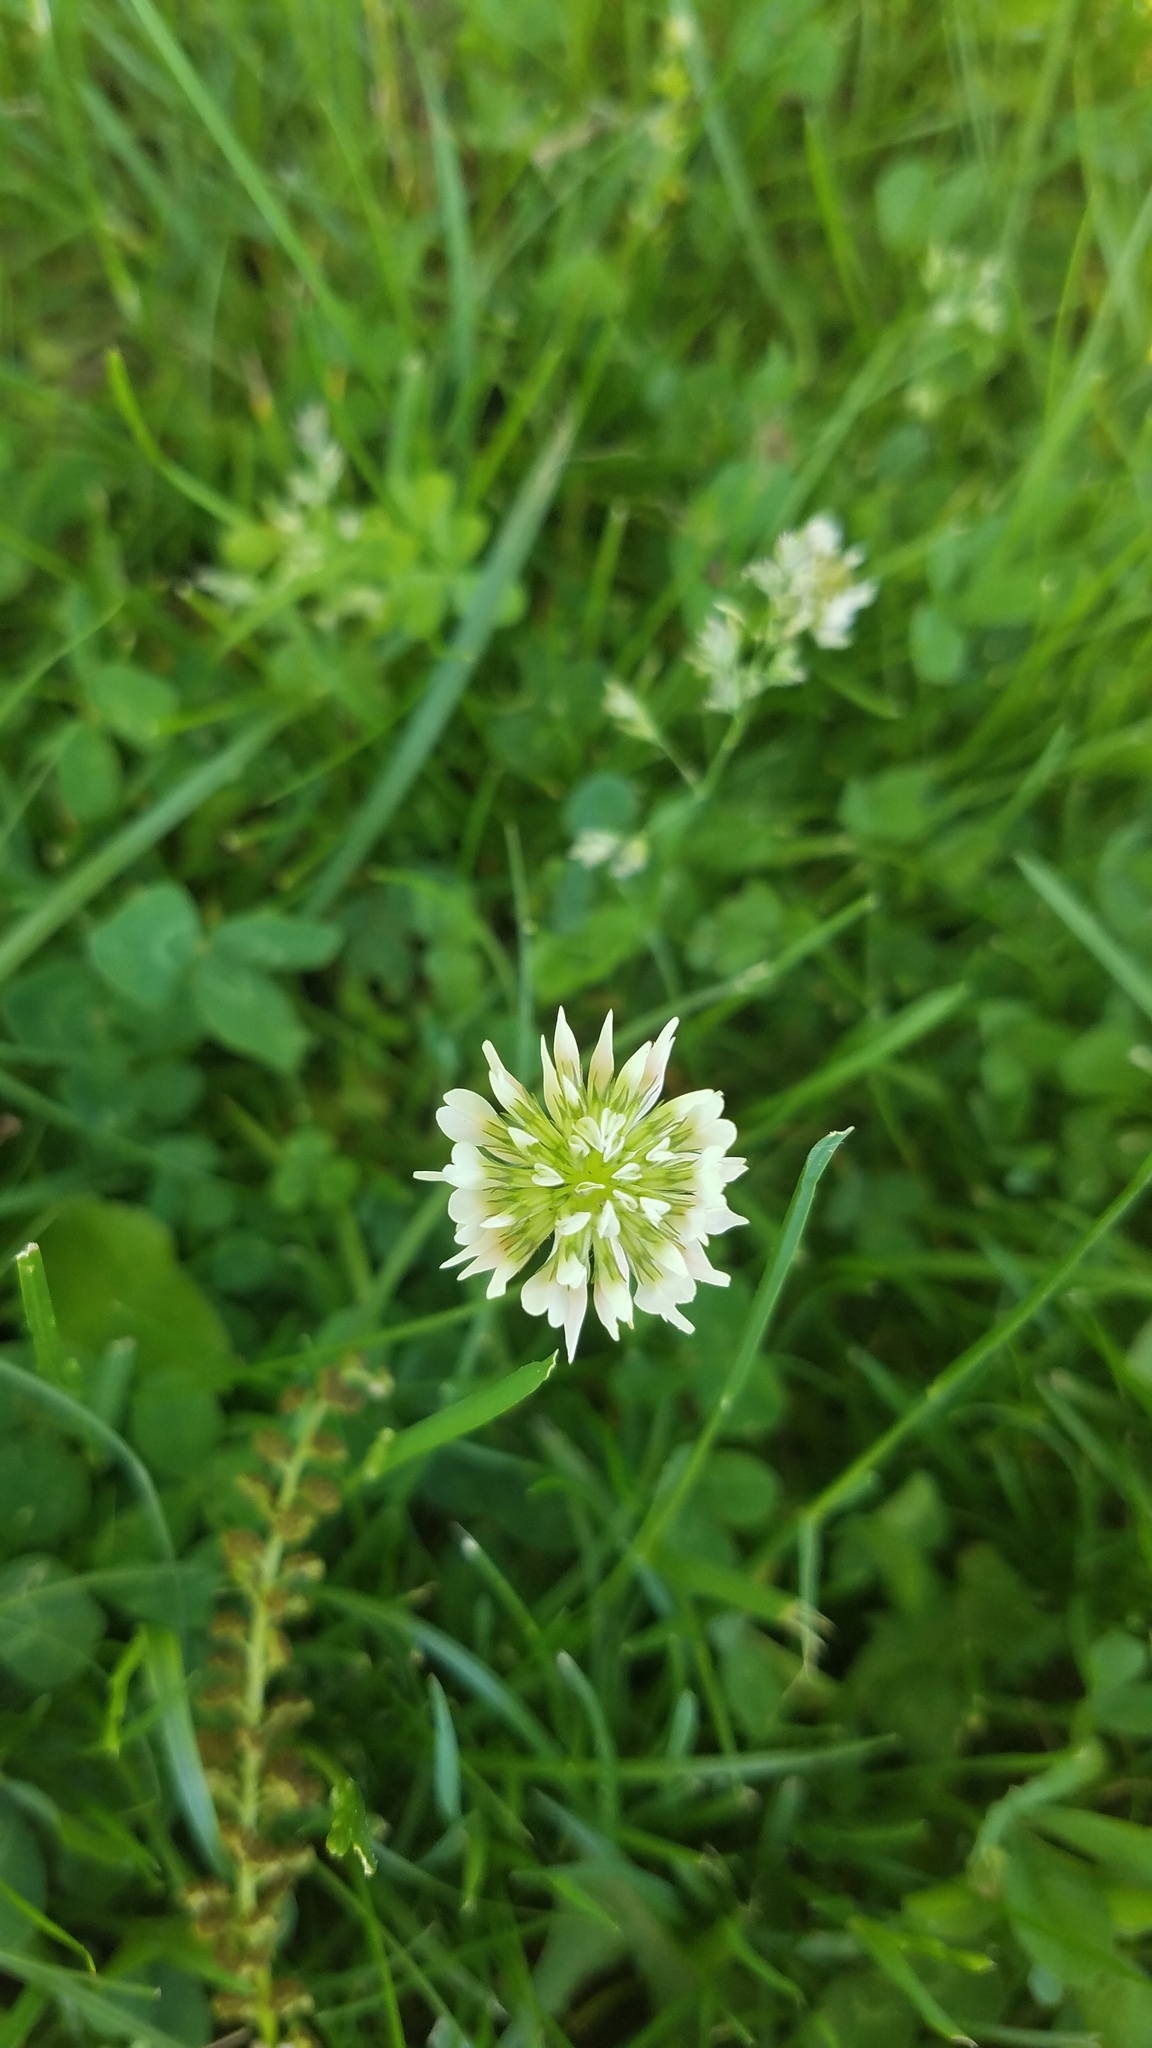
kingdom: Plantae
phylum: Tracheophyta
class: Magnoliopsida
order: Fabales
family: Fabaceae
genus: Trifolium
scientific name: Trifolium repens
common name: White clover
